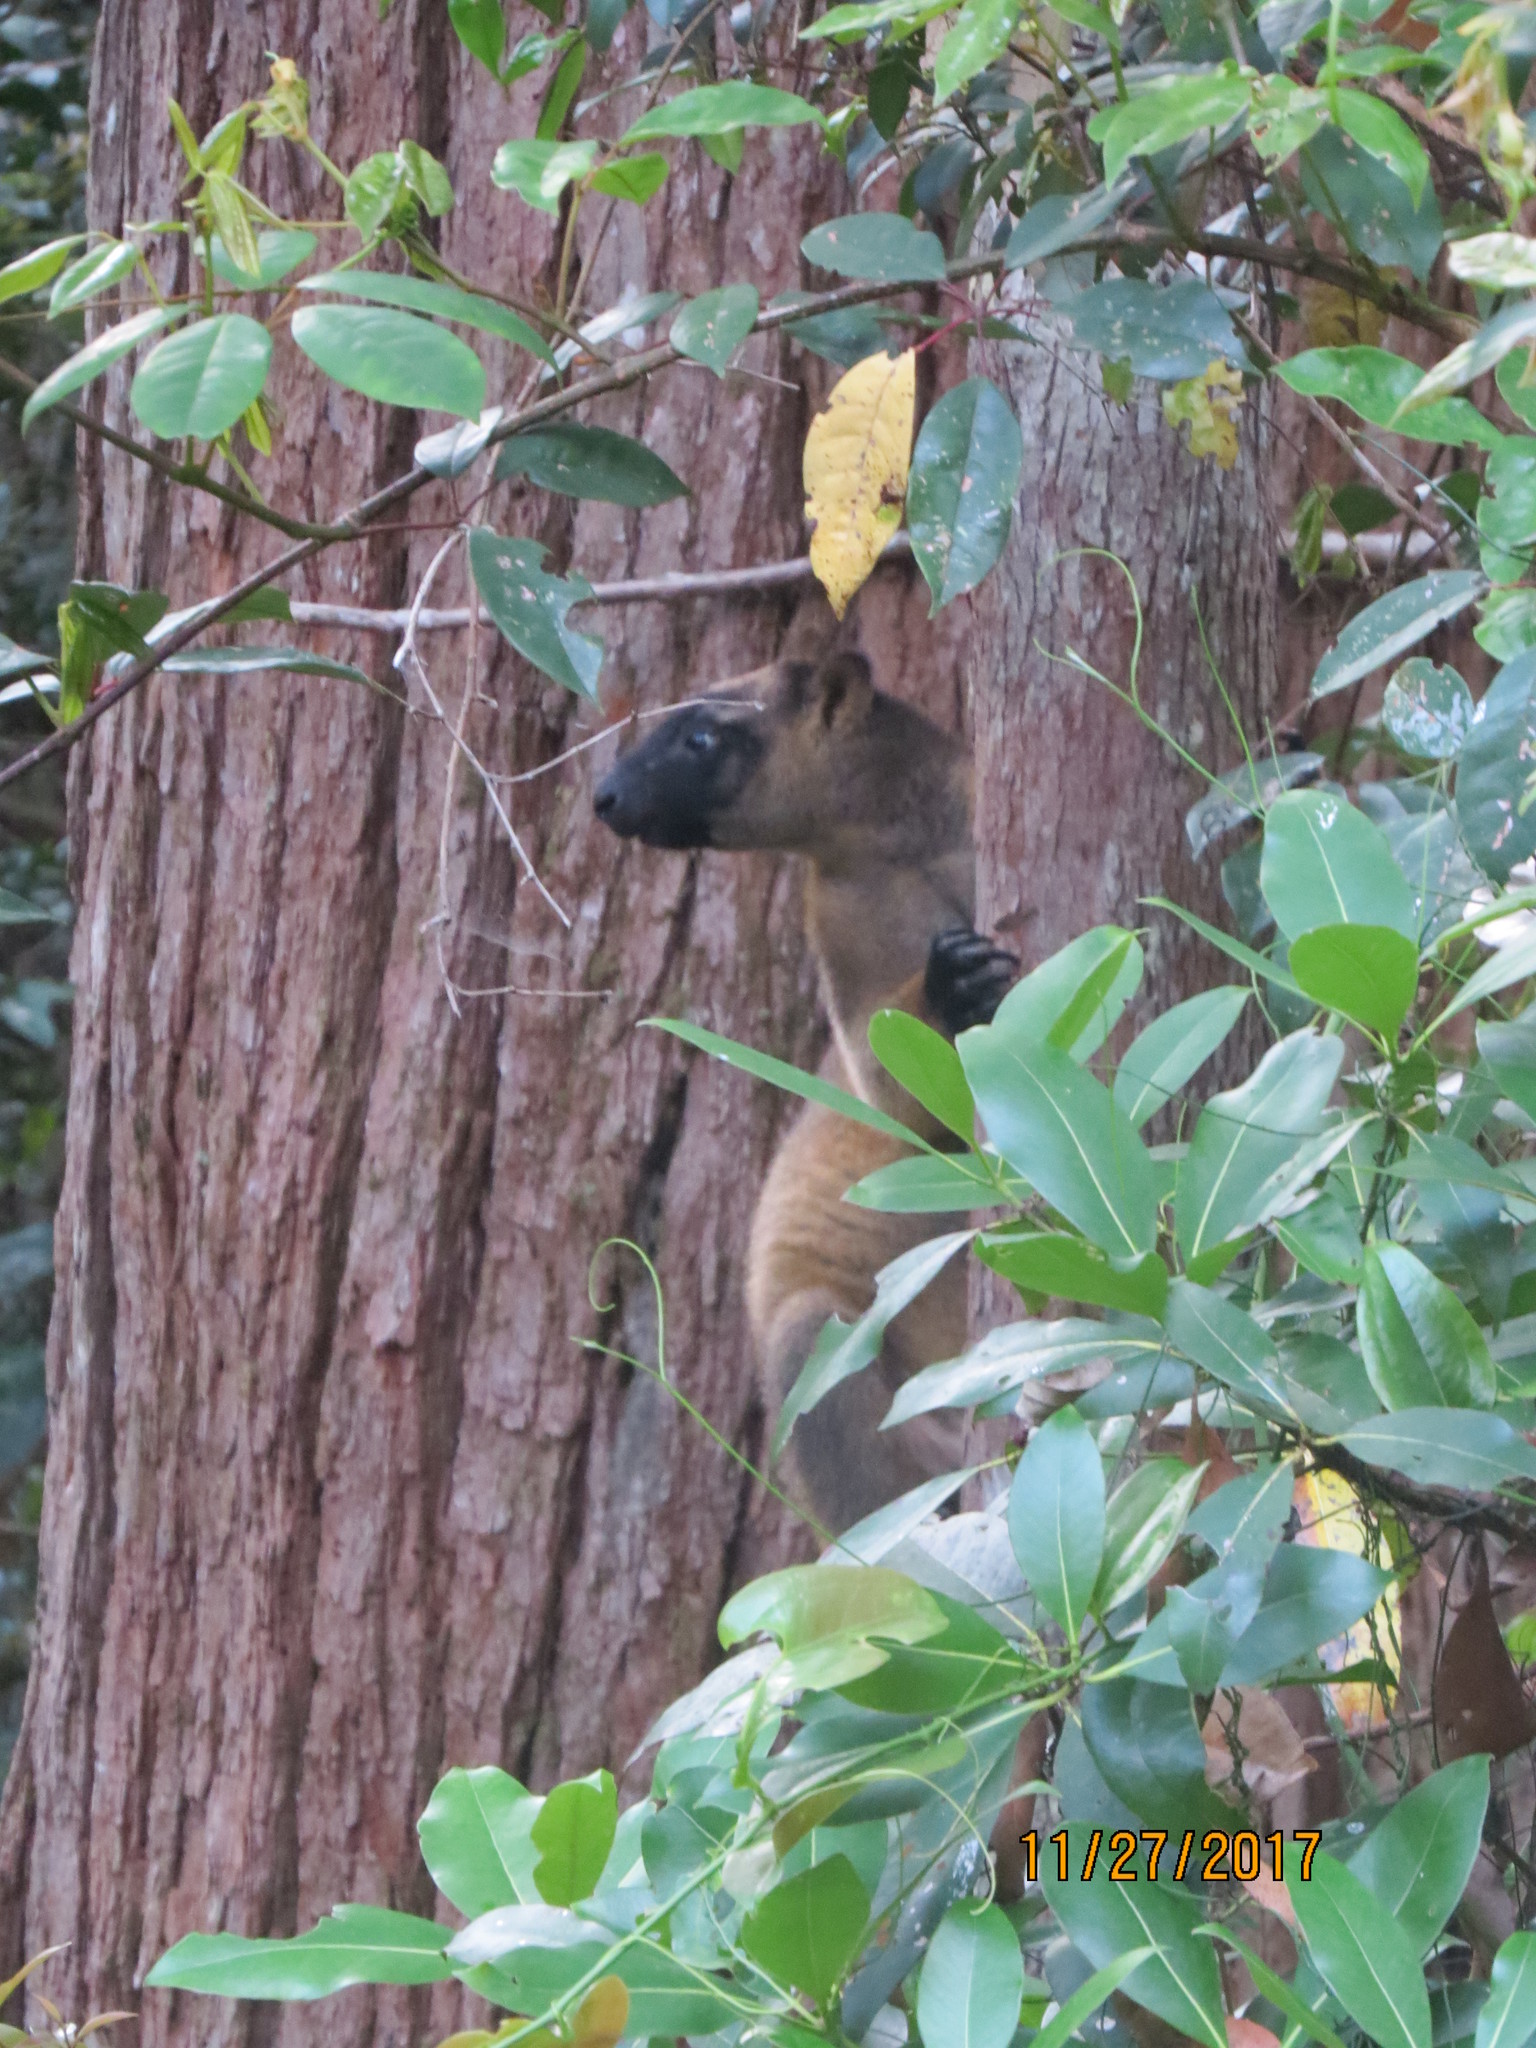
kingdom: Animalia
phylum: Chordata
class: Mammalia
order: Diprotodontia
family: Macropodidae
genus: Dendrolagus
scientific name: Dendrolagus lumholtzi
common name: Lumholtz's tree kangaroo
